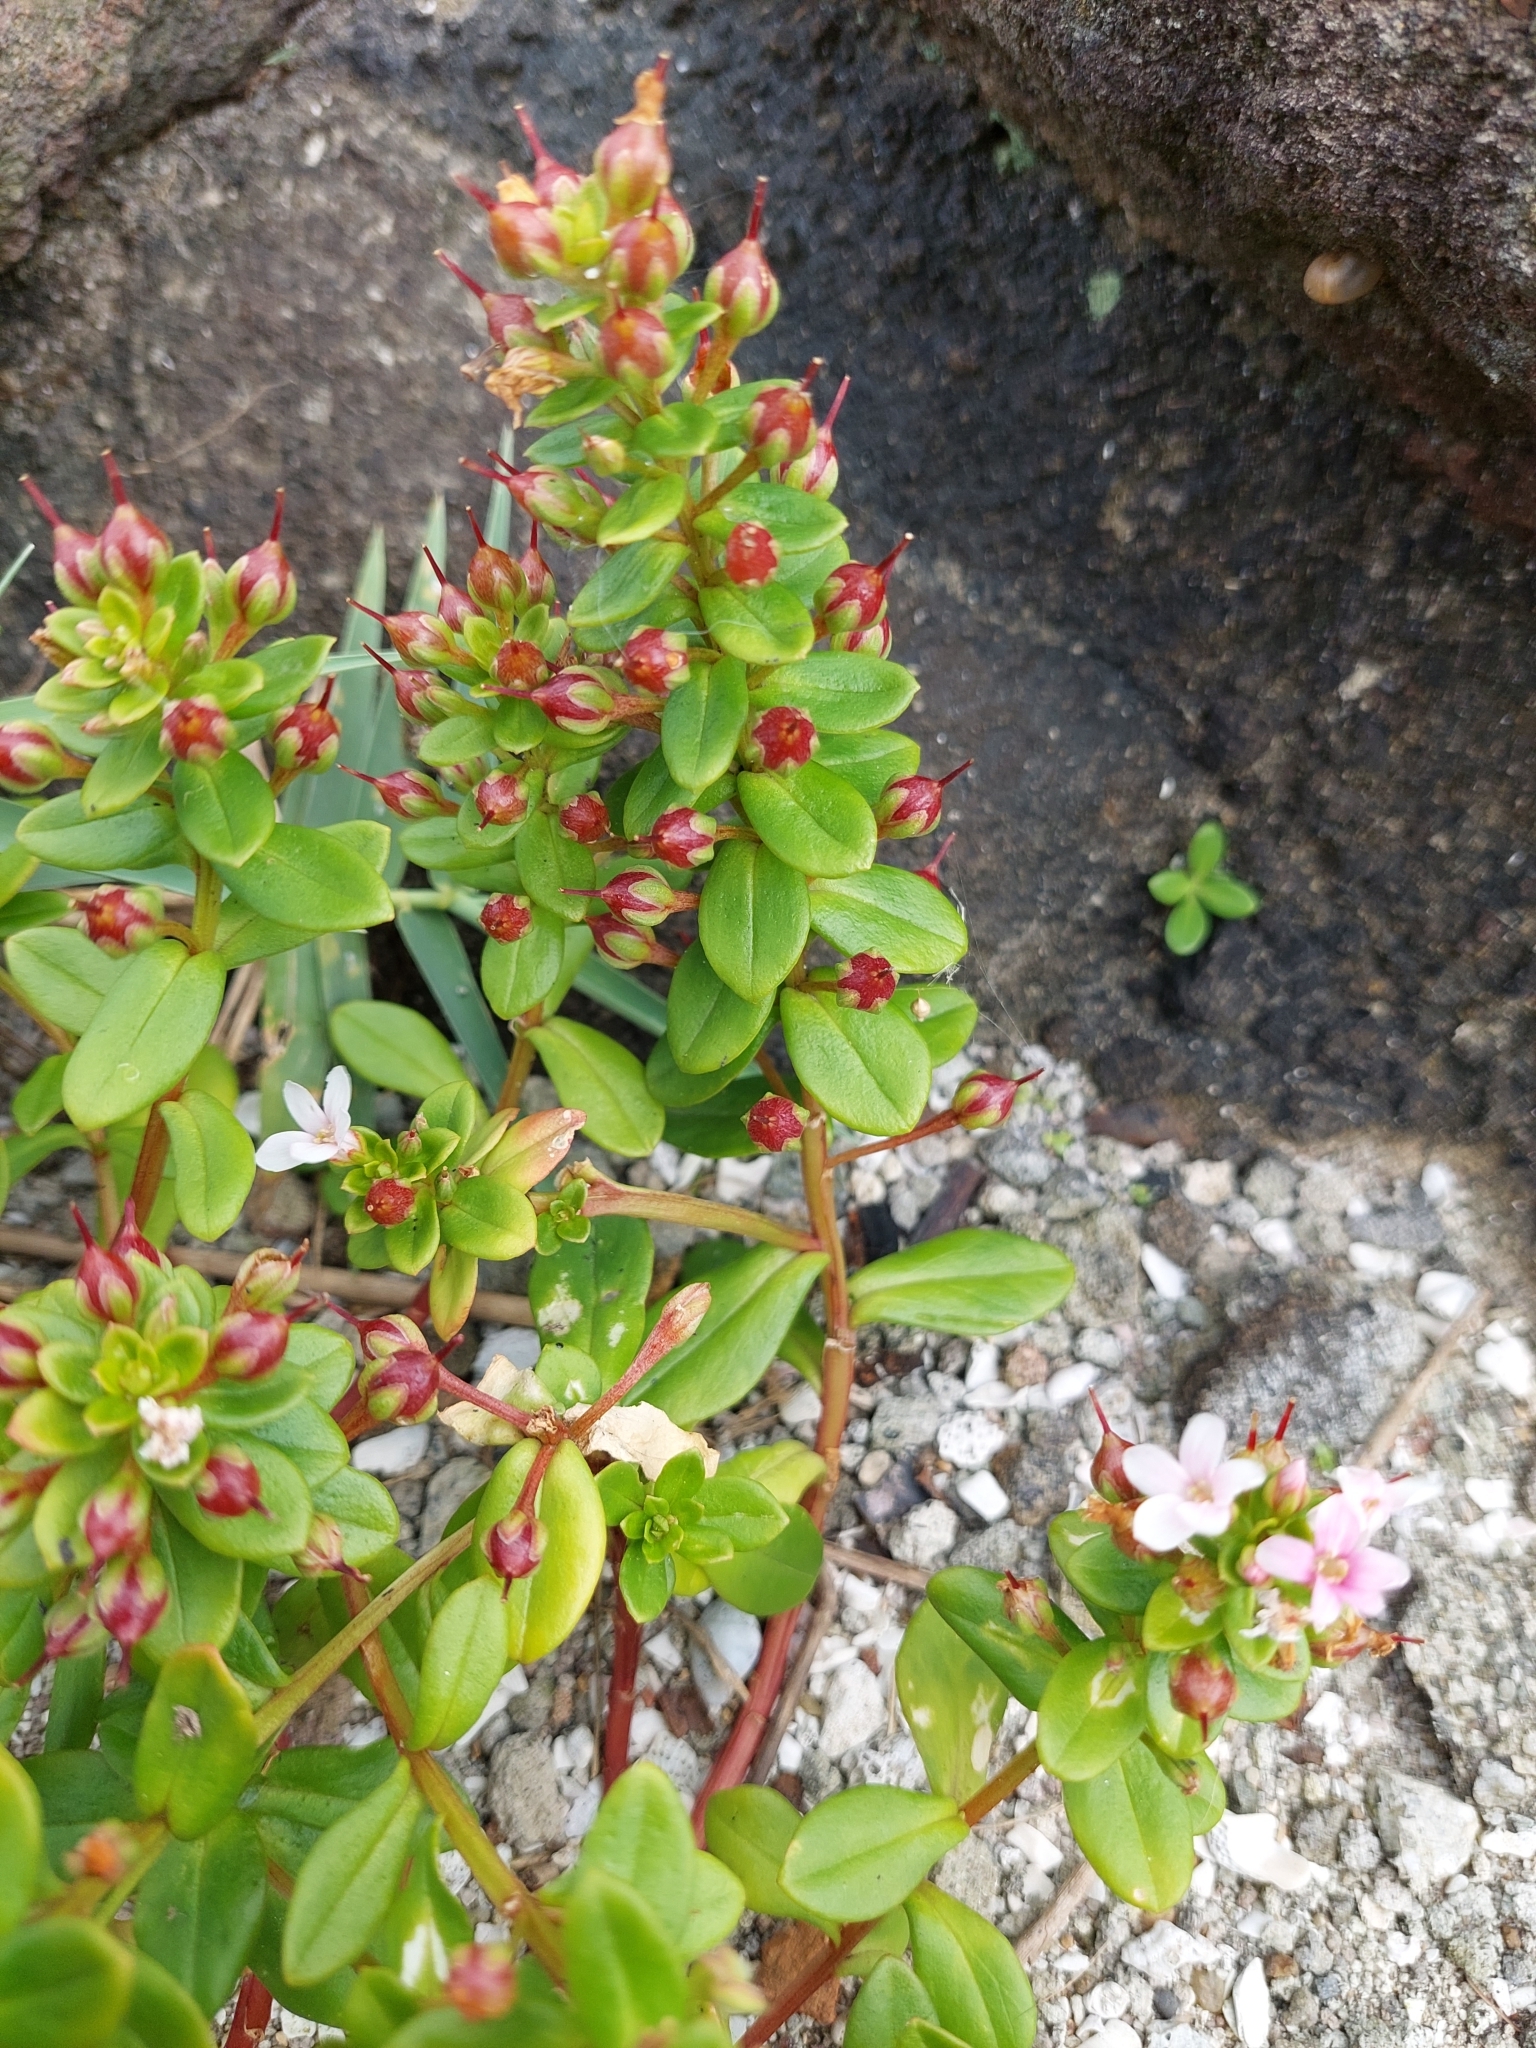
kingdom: Plantae
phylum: Tracheophyta
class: Magnoliopsida
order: Ericales
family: Primulaceae
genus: Lysimachia
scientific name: Lysimachia mauritiana
